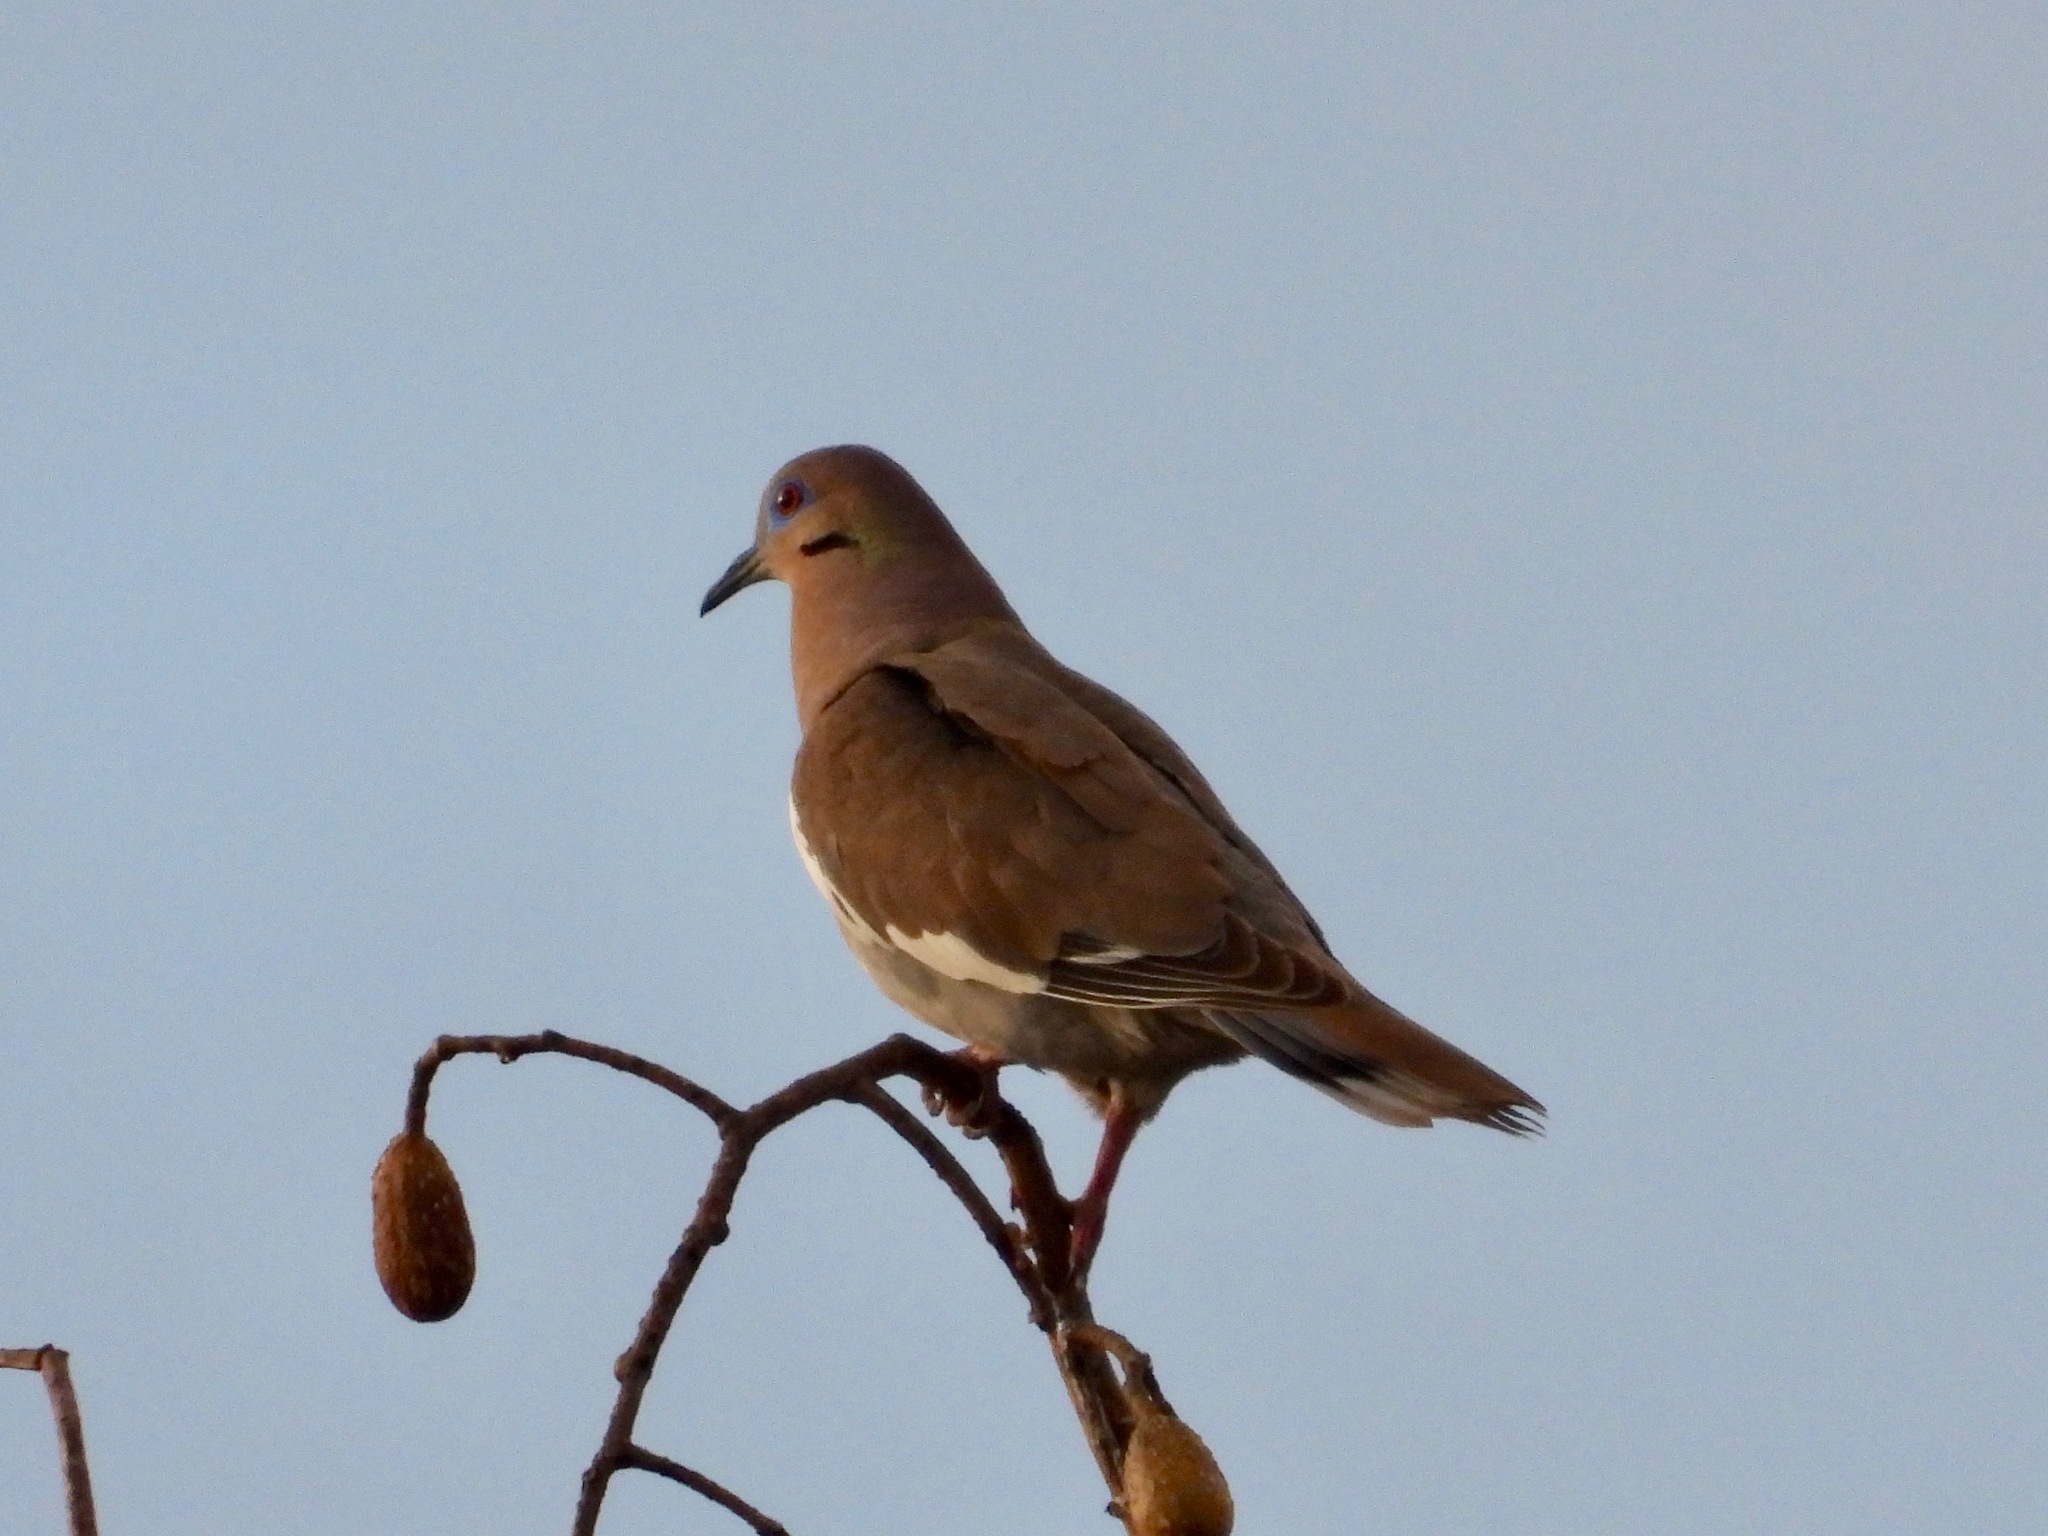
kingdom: Animalia
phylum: Chordata
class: Aves
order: Columbiformes
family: Columbidae
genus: Zenaida
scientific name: Zenaida asiatica
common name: White-winged dove
